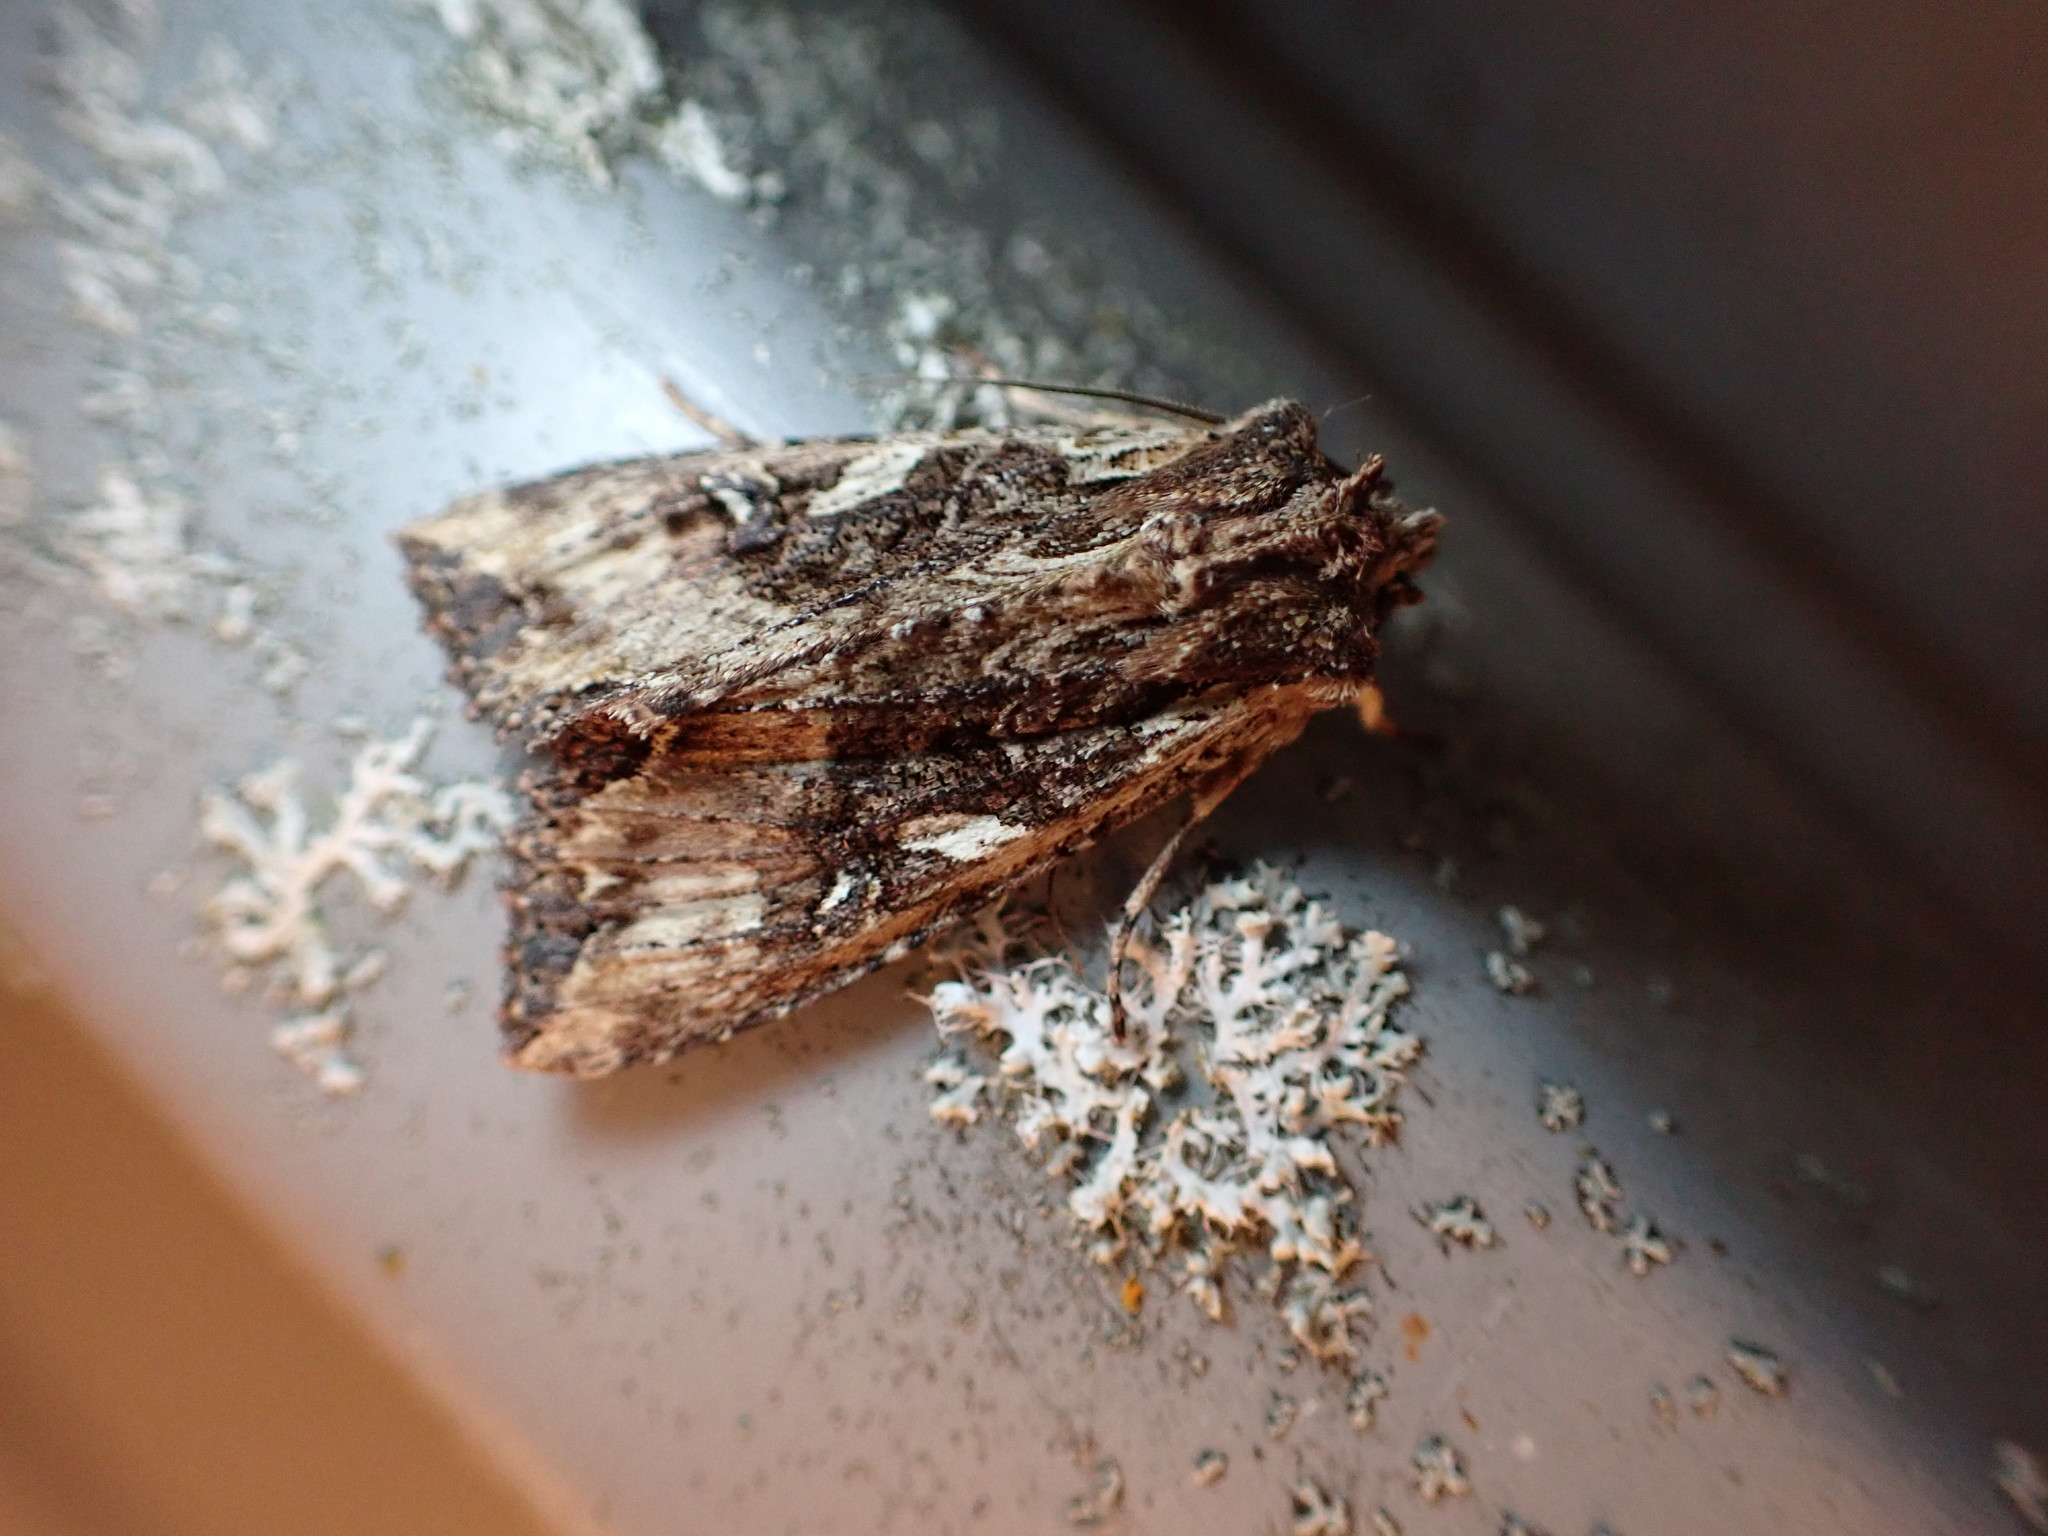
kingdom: Animalia
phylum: Arthropoda
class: Insecta
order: Lepidoptera
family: Noctuidae
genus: Meterana
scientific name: Meterana stipata
